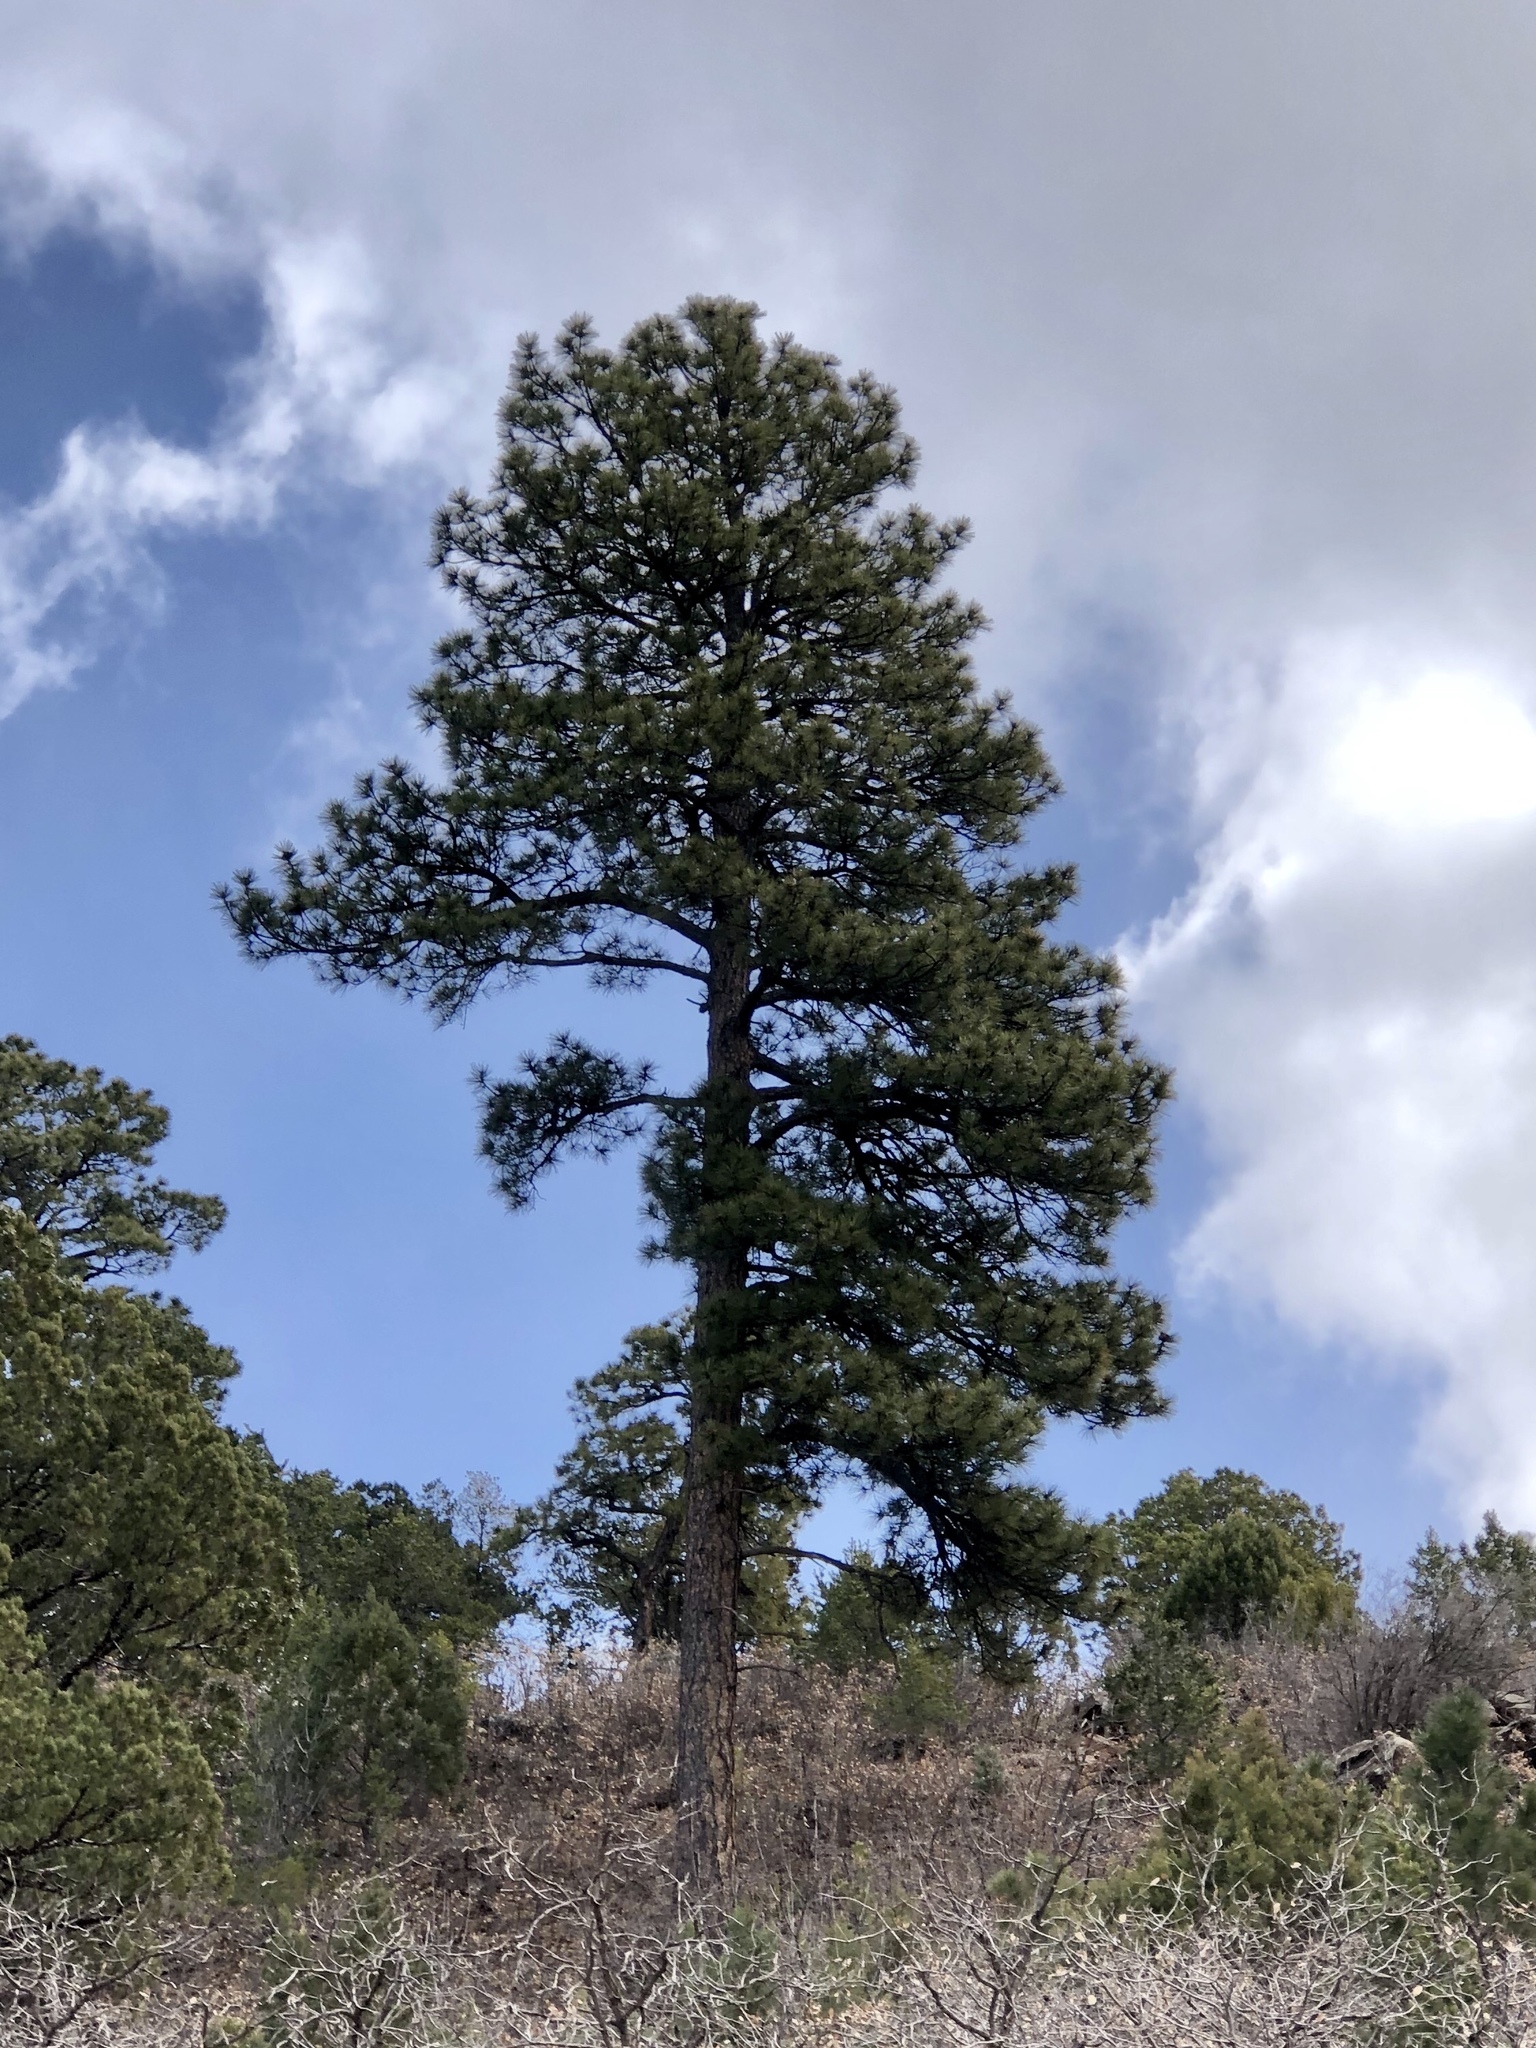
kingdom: Plantae
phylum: Tracheophyta
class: Pinopsida
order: Pinales
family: Pinaceae
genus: Pinus
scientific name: Pinus ponderosa
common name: Western yellow-pine
